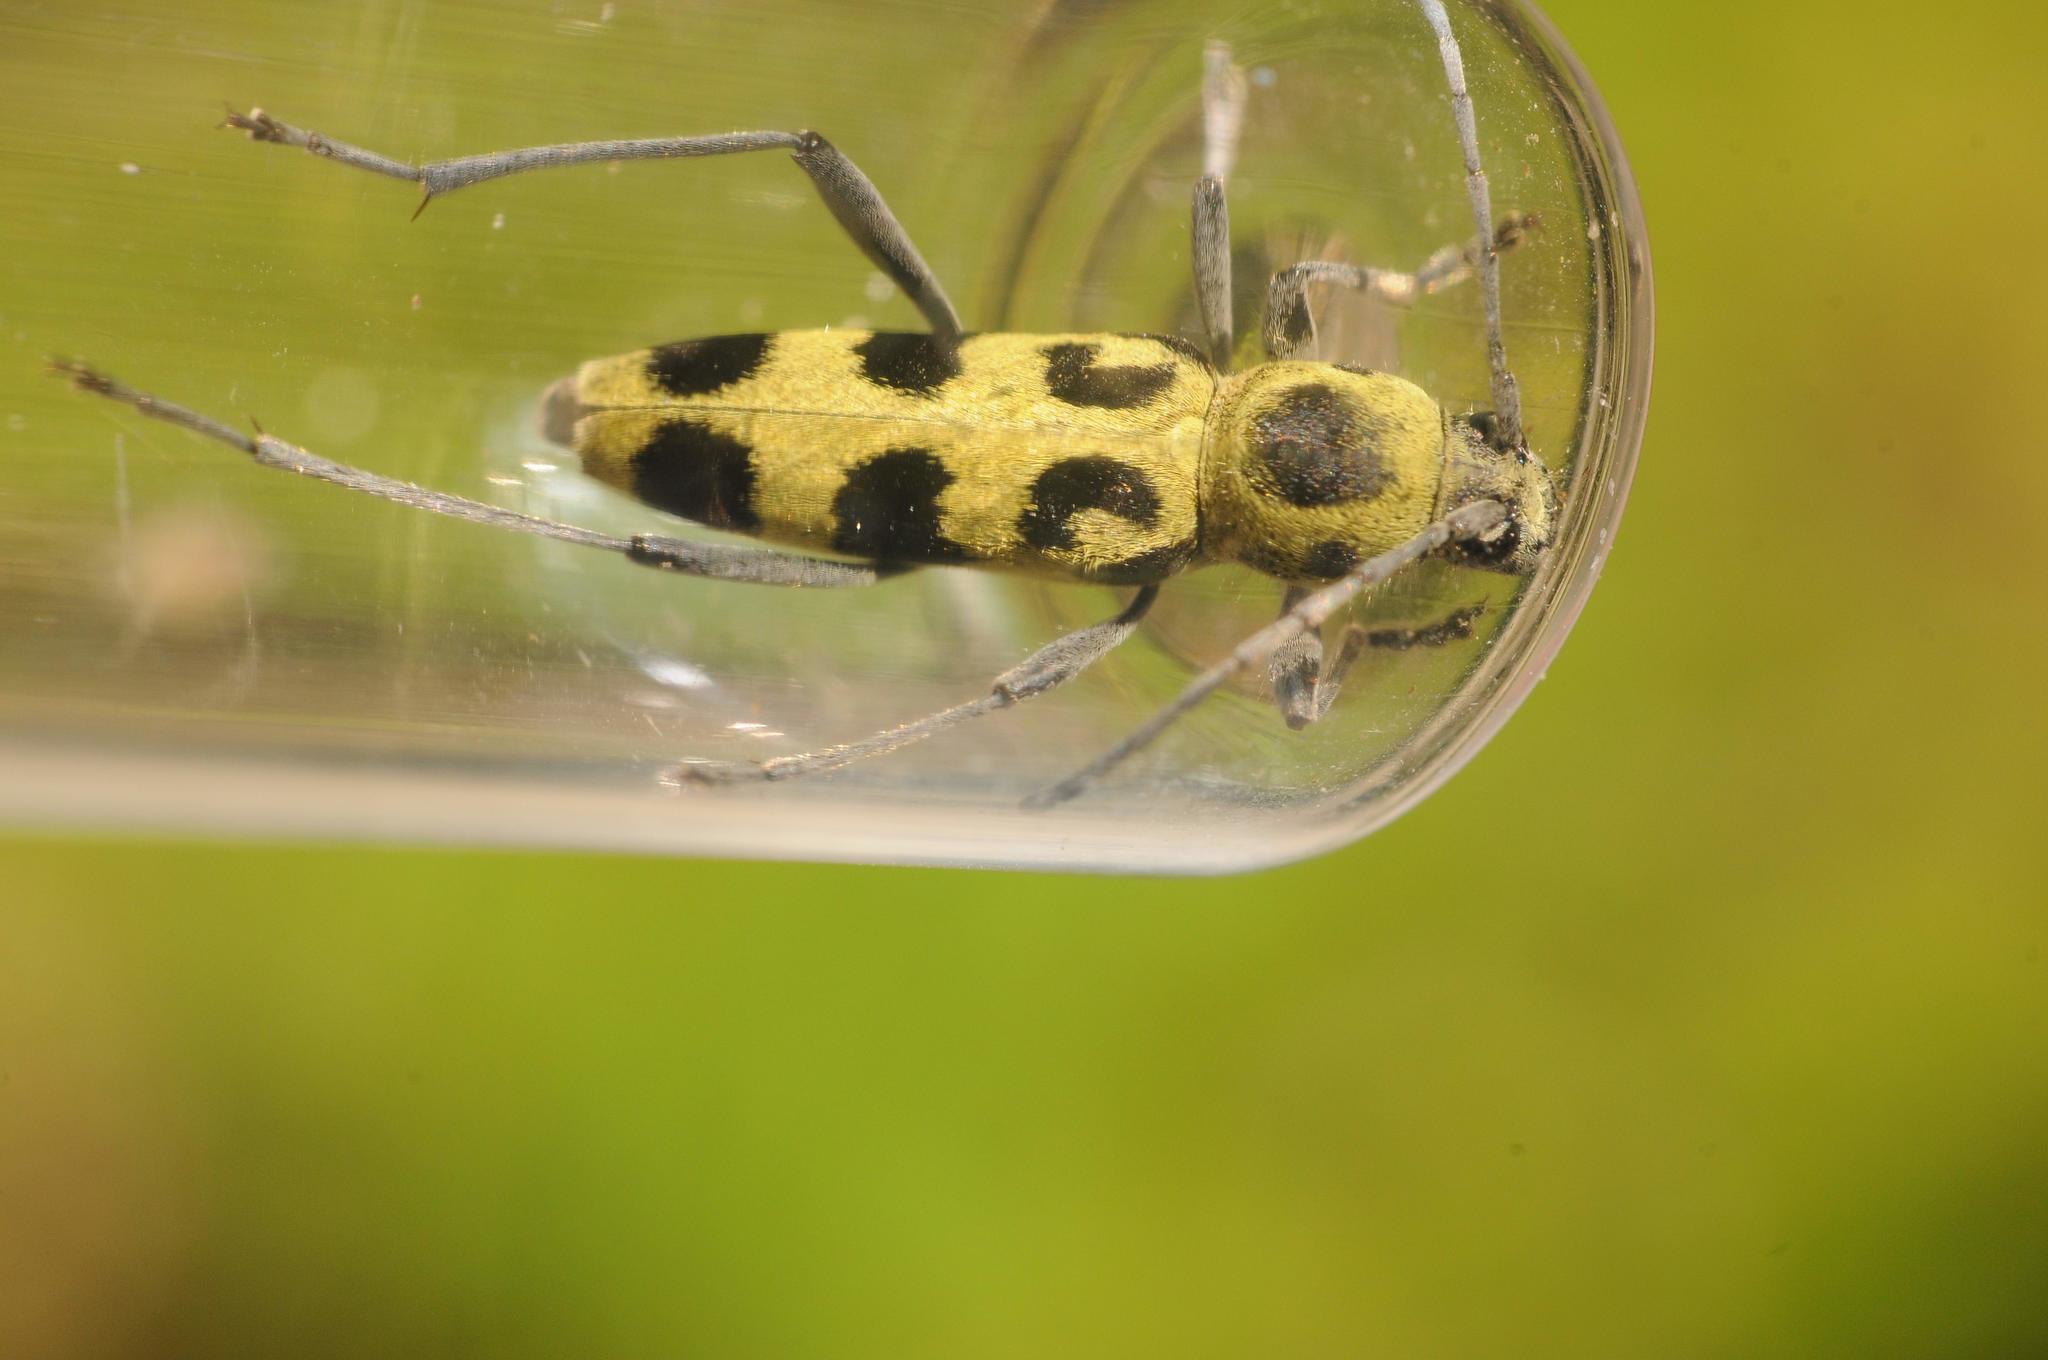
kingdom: Animalia
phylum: Arthropoda
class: Insecta
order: Coleoptera
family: Cerambycidae
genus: Chlorophorus
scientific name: Chlorophorus herbstii
